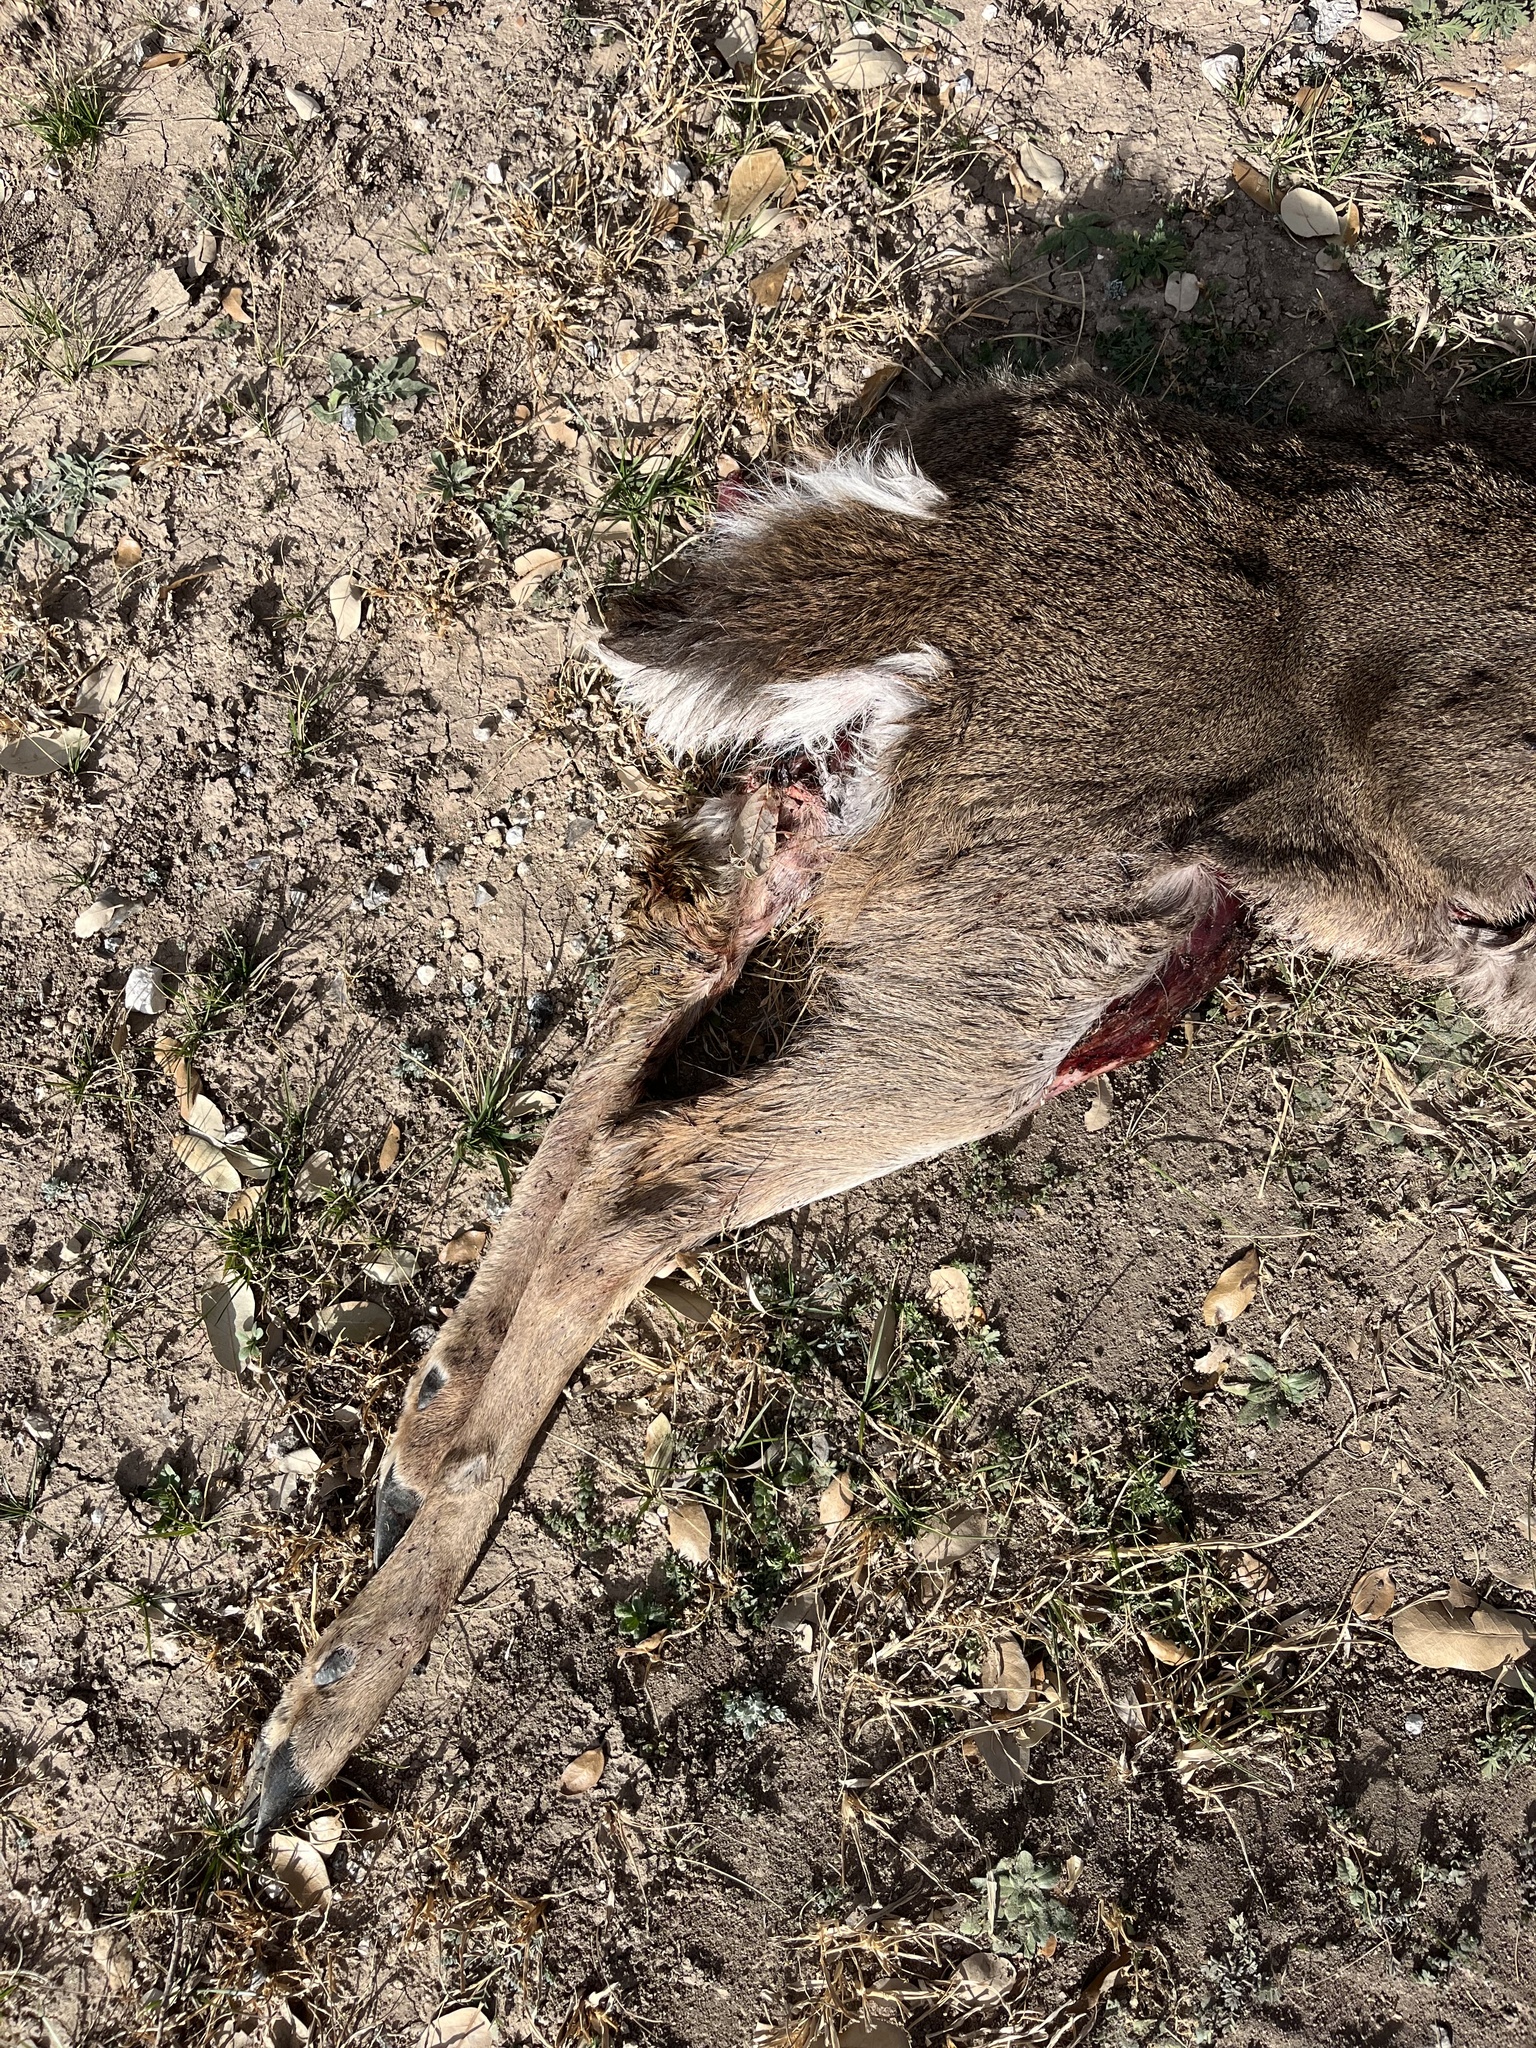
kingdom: Animalia
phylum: Chordata
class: Mammalia
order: Artiodactyla
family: Cervidae
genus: Odocoileus
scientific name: Odocoileus virginianus
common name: White-tailed deer
